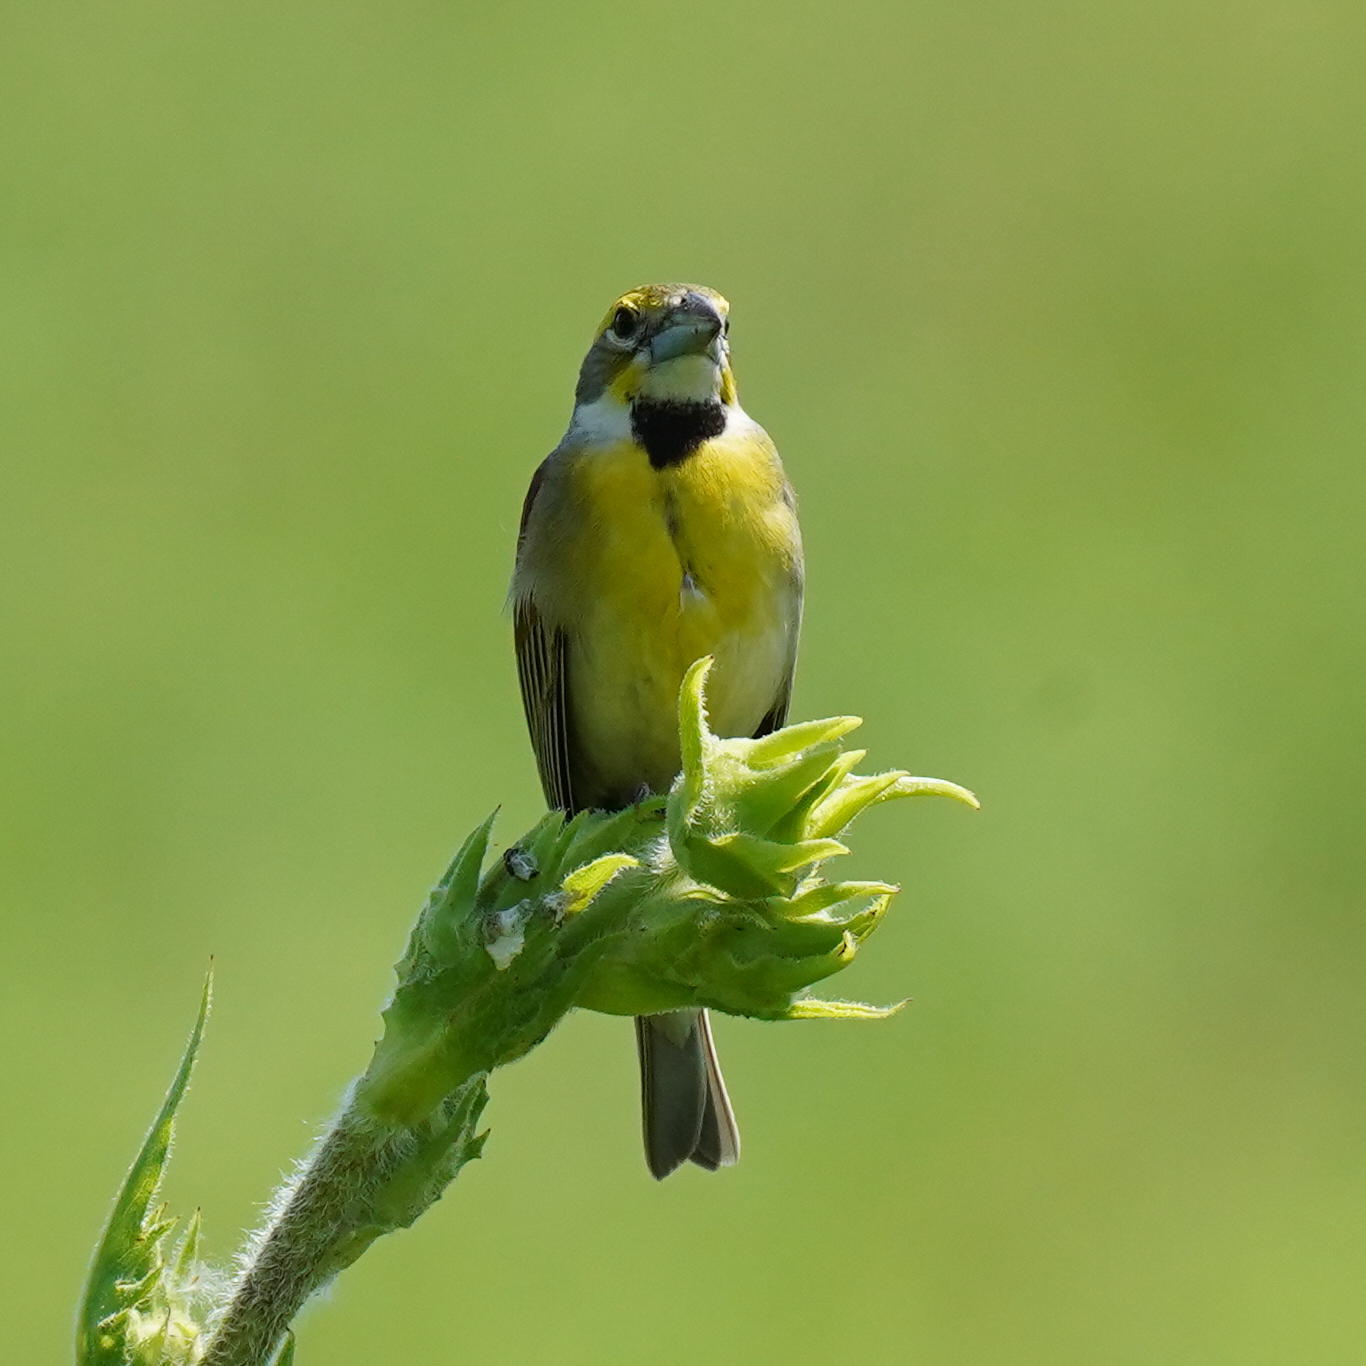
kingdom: Animalia
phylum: Chordata
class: Aves
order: Passeriformes
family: Cardinalidae
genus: Spiza
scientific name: Spiza americana
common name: Dickcissel
